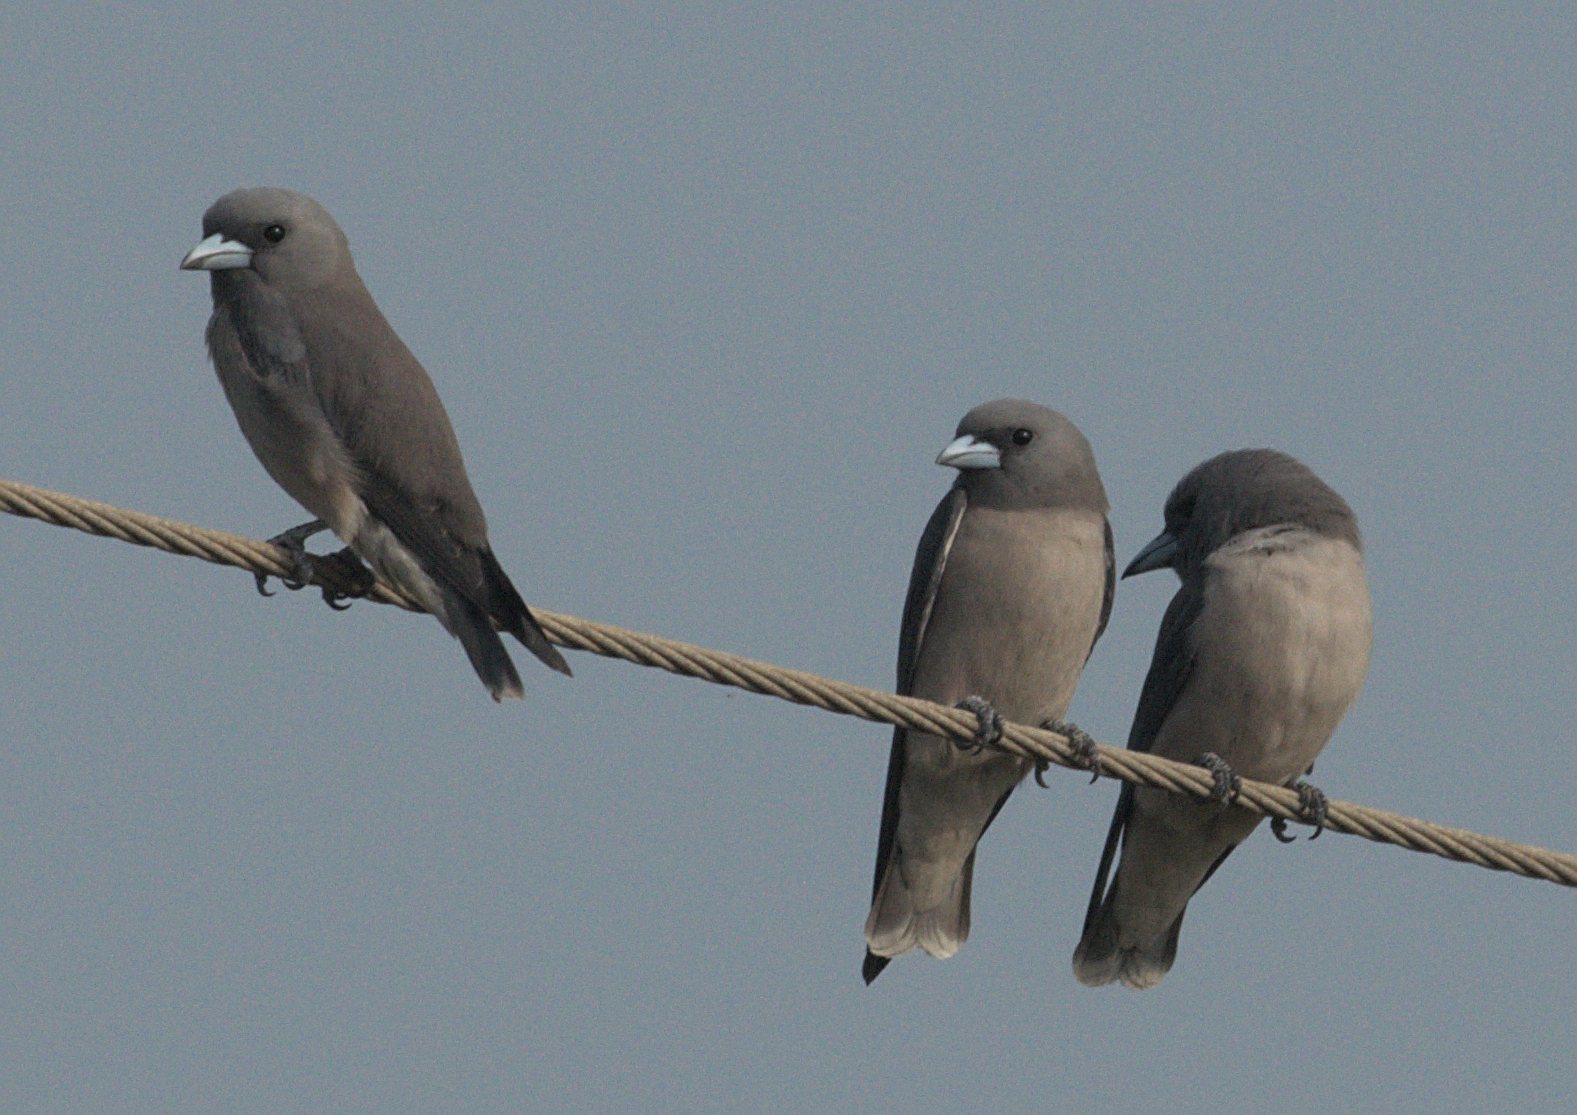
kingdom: Animalia
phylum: Chordata
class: Aves
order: Passeriformes
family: Artamidae
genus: Artamus
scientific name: Artamus fuscus
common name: Ashy woodswallow
